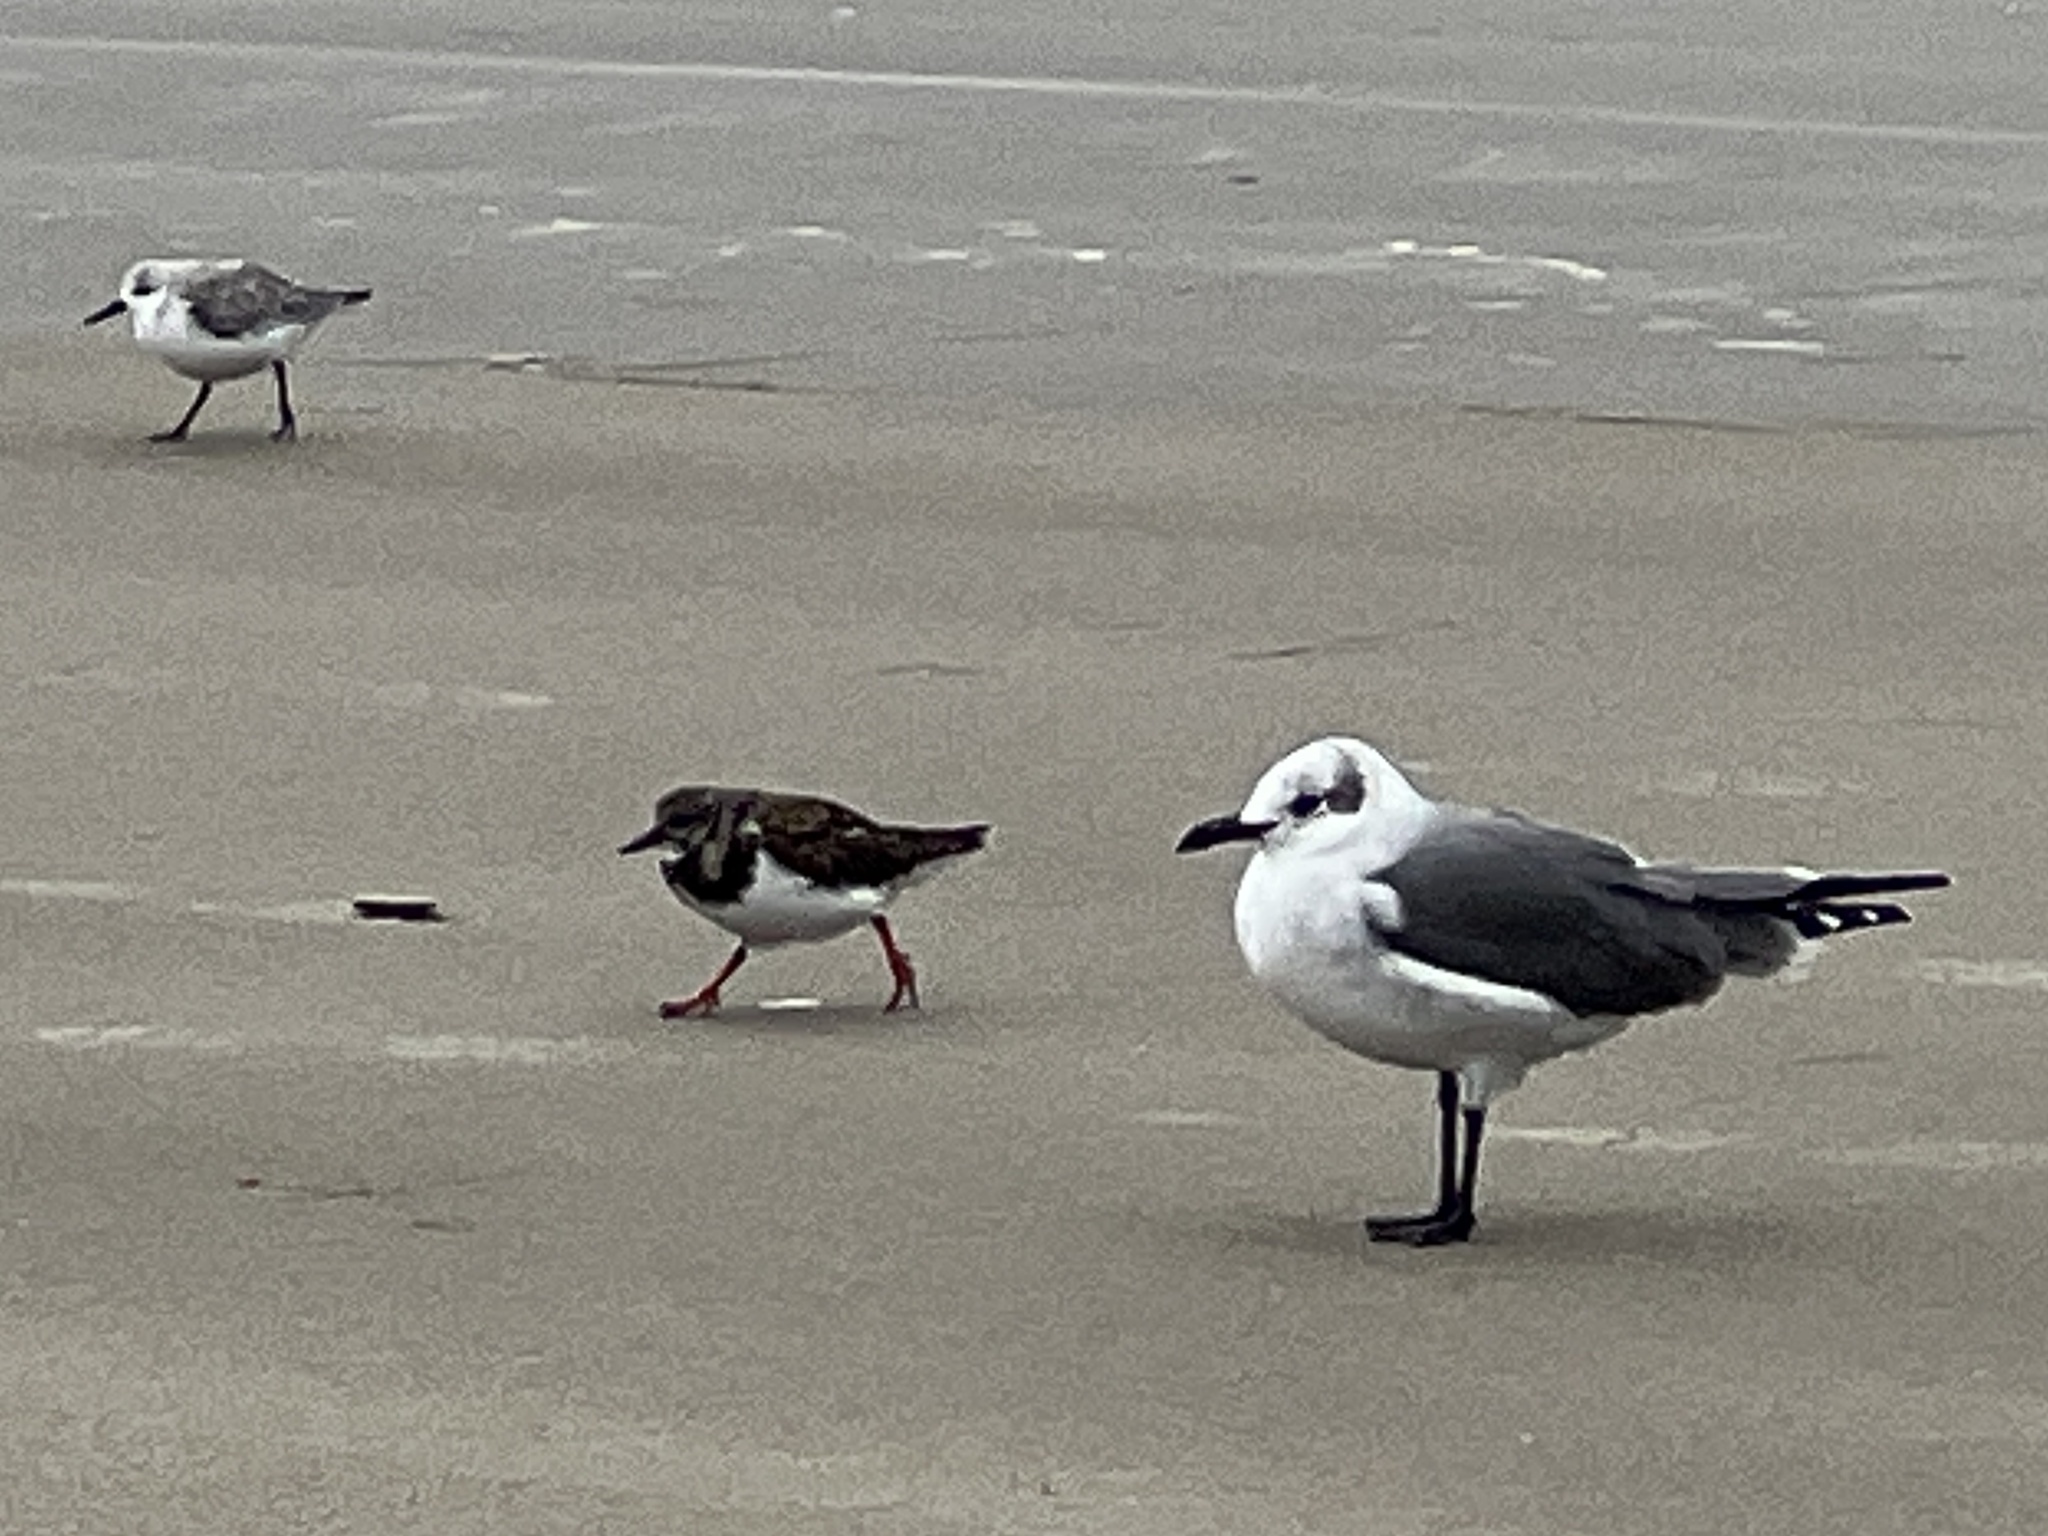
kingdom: Animalia
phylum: Chordata
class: Aves
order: Charadriiformes
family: Laridae
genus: Leucophaeus
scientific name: Leucophaeus atricilla
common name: Laughing gull
